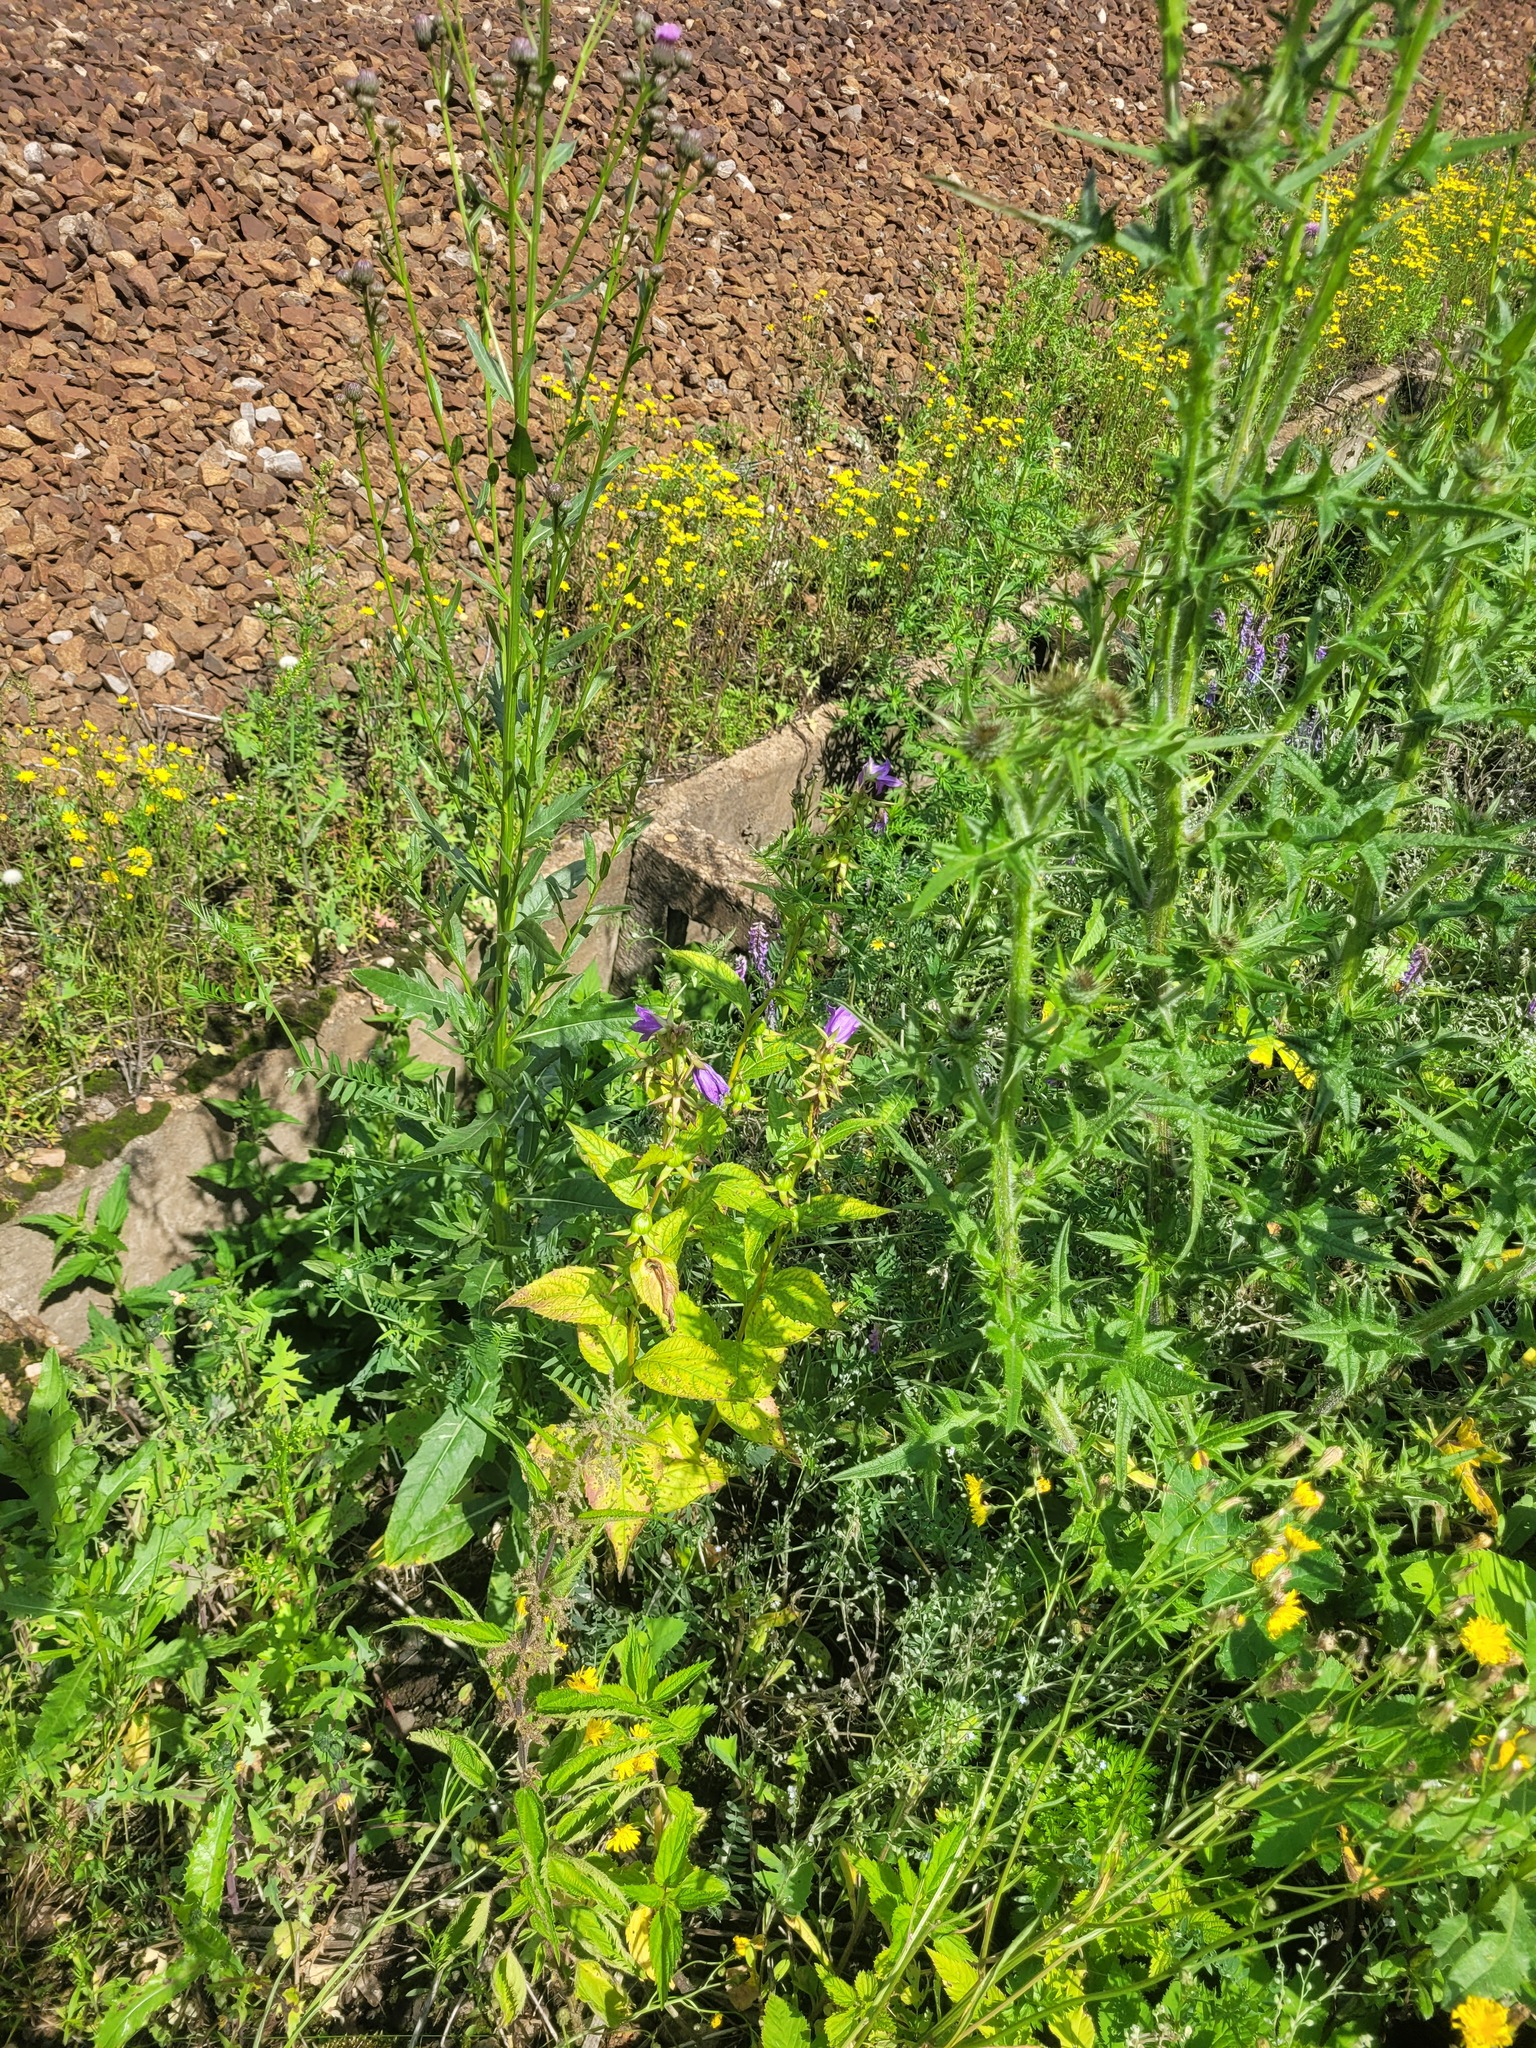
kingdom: Plantae
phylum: Tracheophyta
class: Magnoliopsida
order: Asterales
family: Campanulaceae
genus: Campanula
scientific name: Campanula latifolia
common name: Giant bellflower
